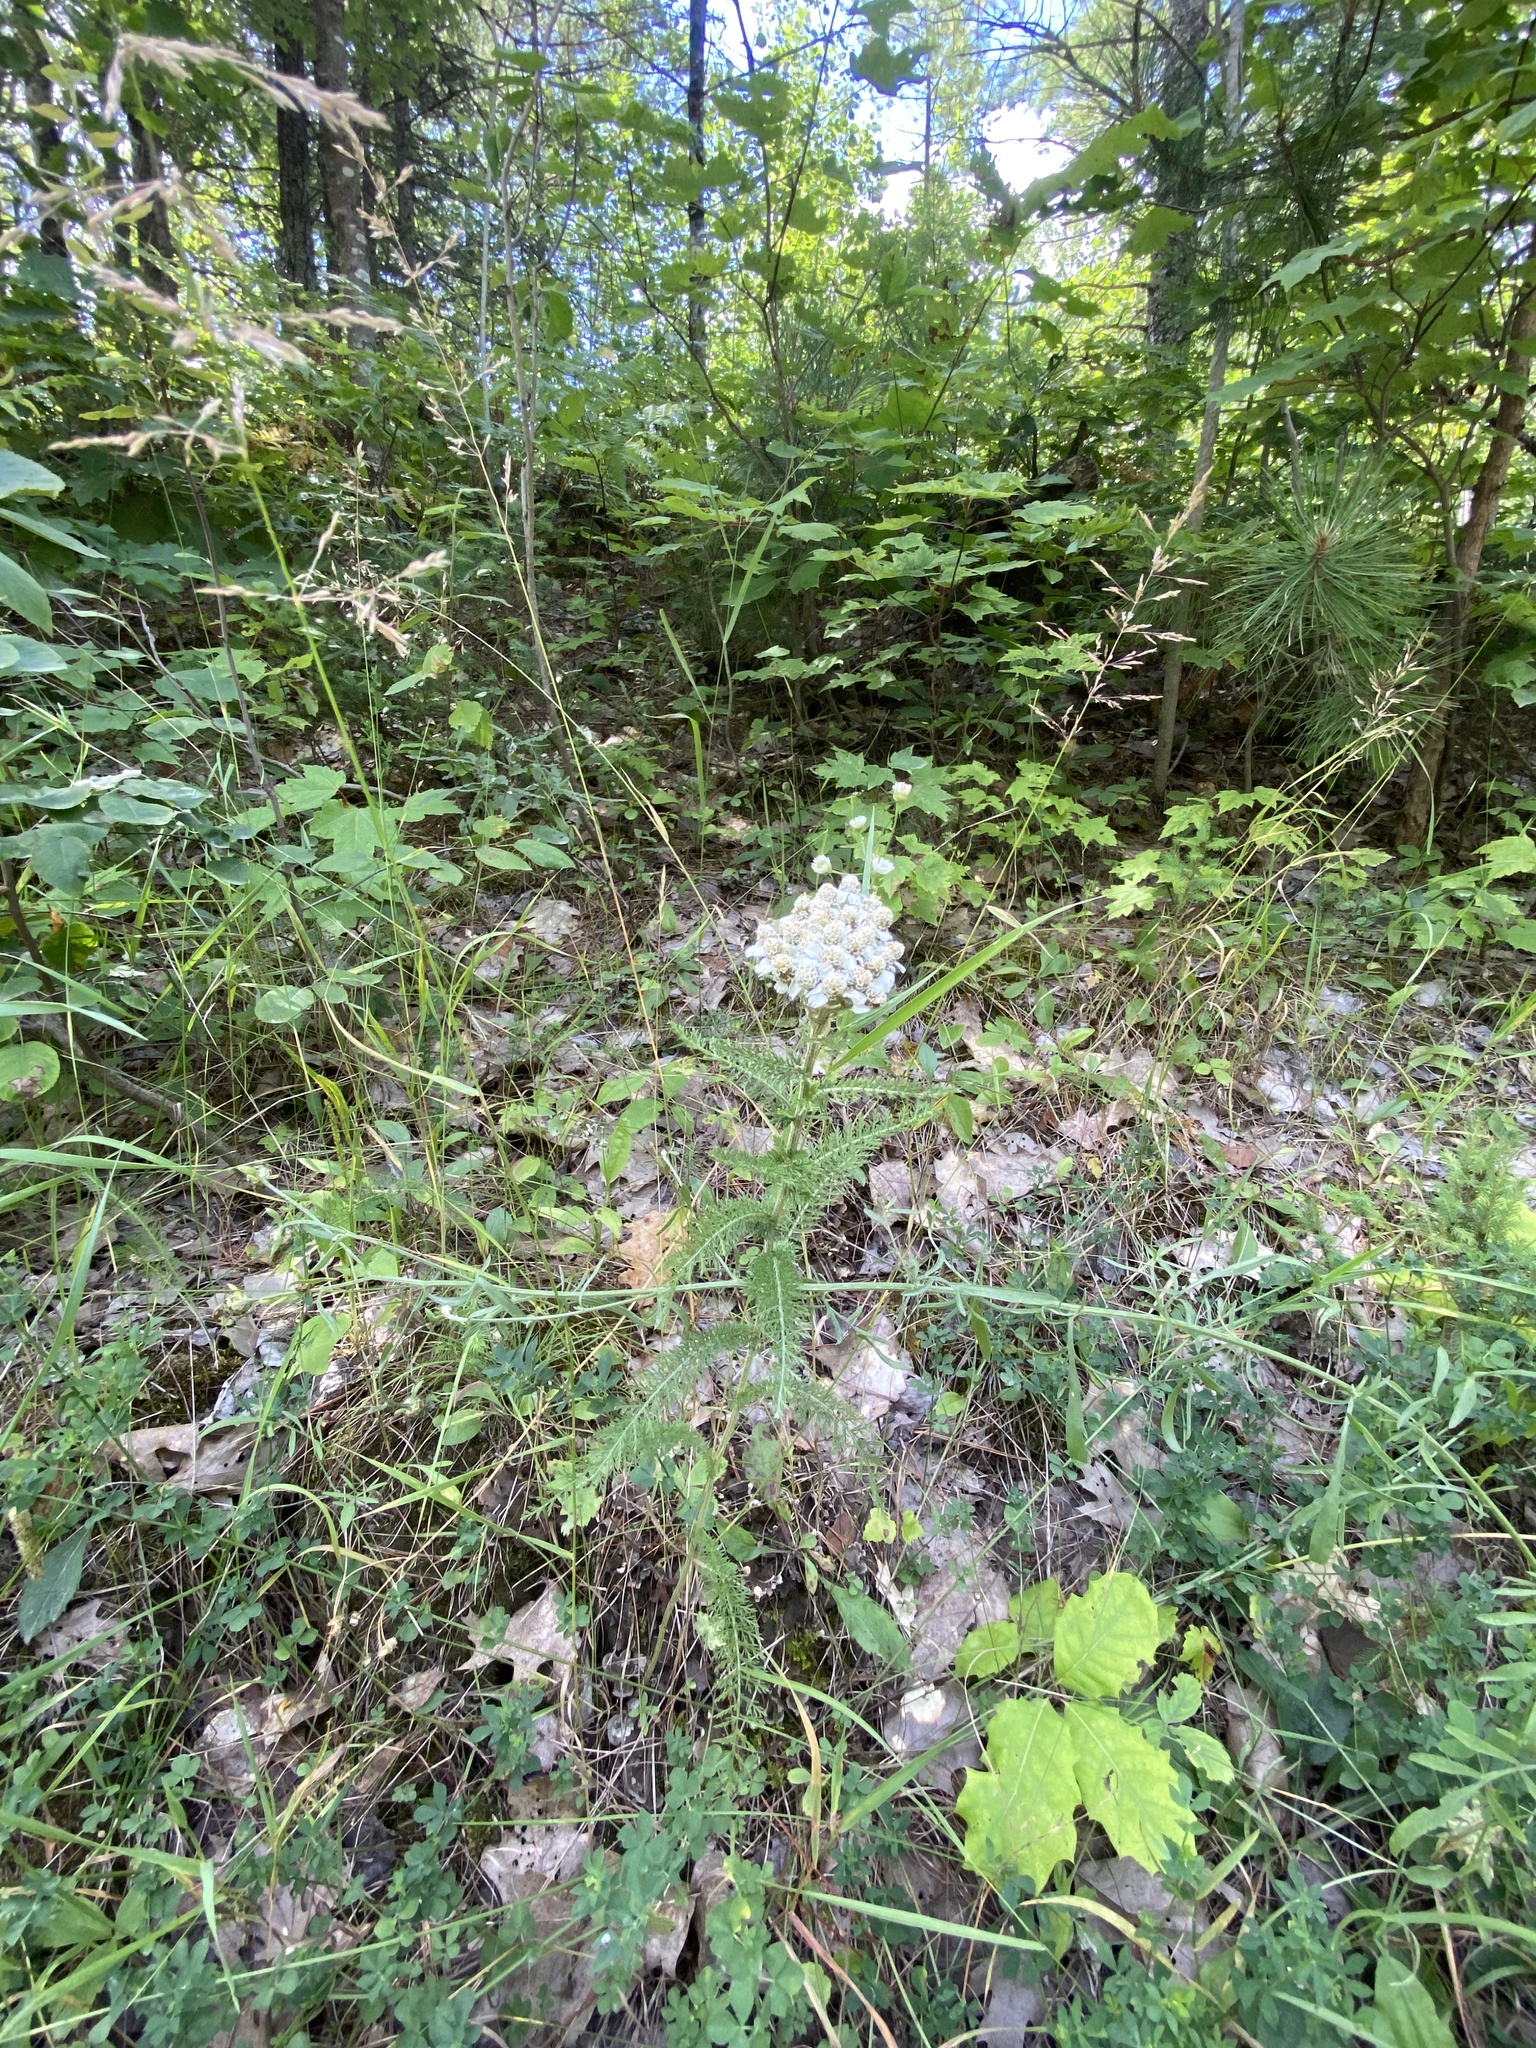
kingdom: Plantae
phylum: Tracheophyta
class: Magnoliopsida
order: Asterales
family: Asteraceae
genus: Achillea
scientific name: Achillea millefolium
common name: Yarrow
